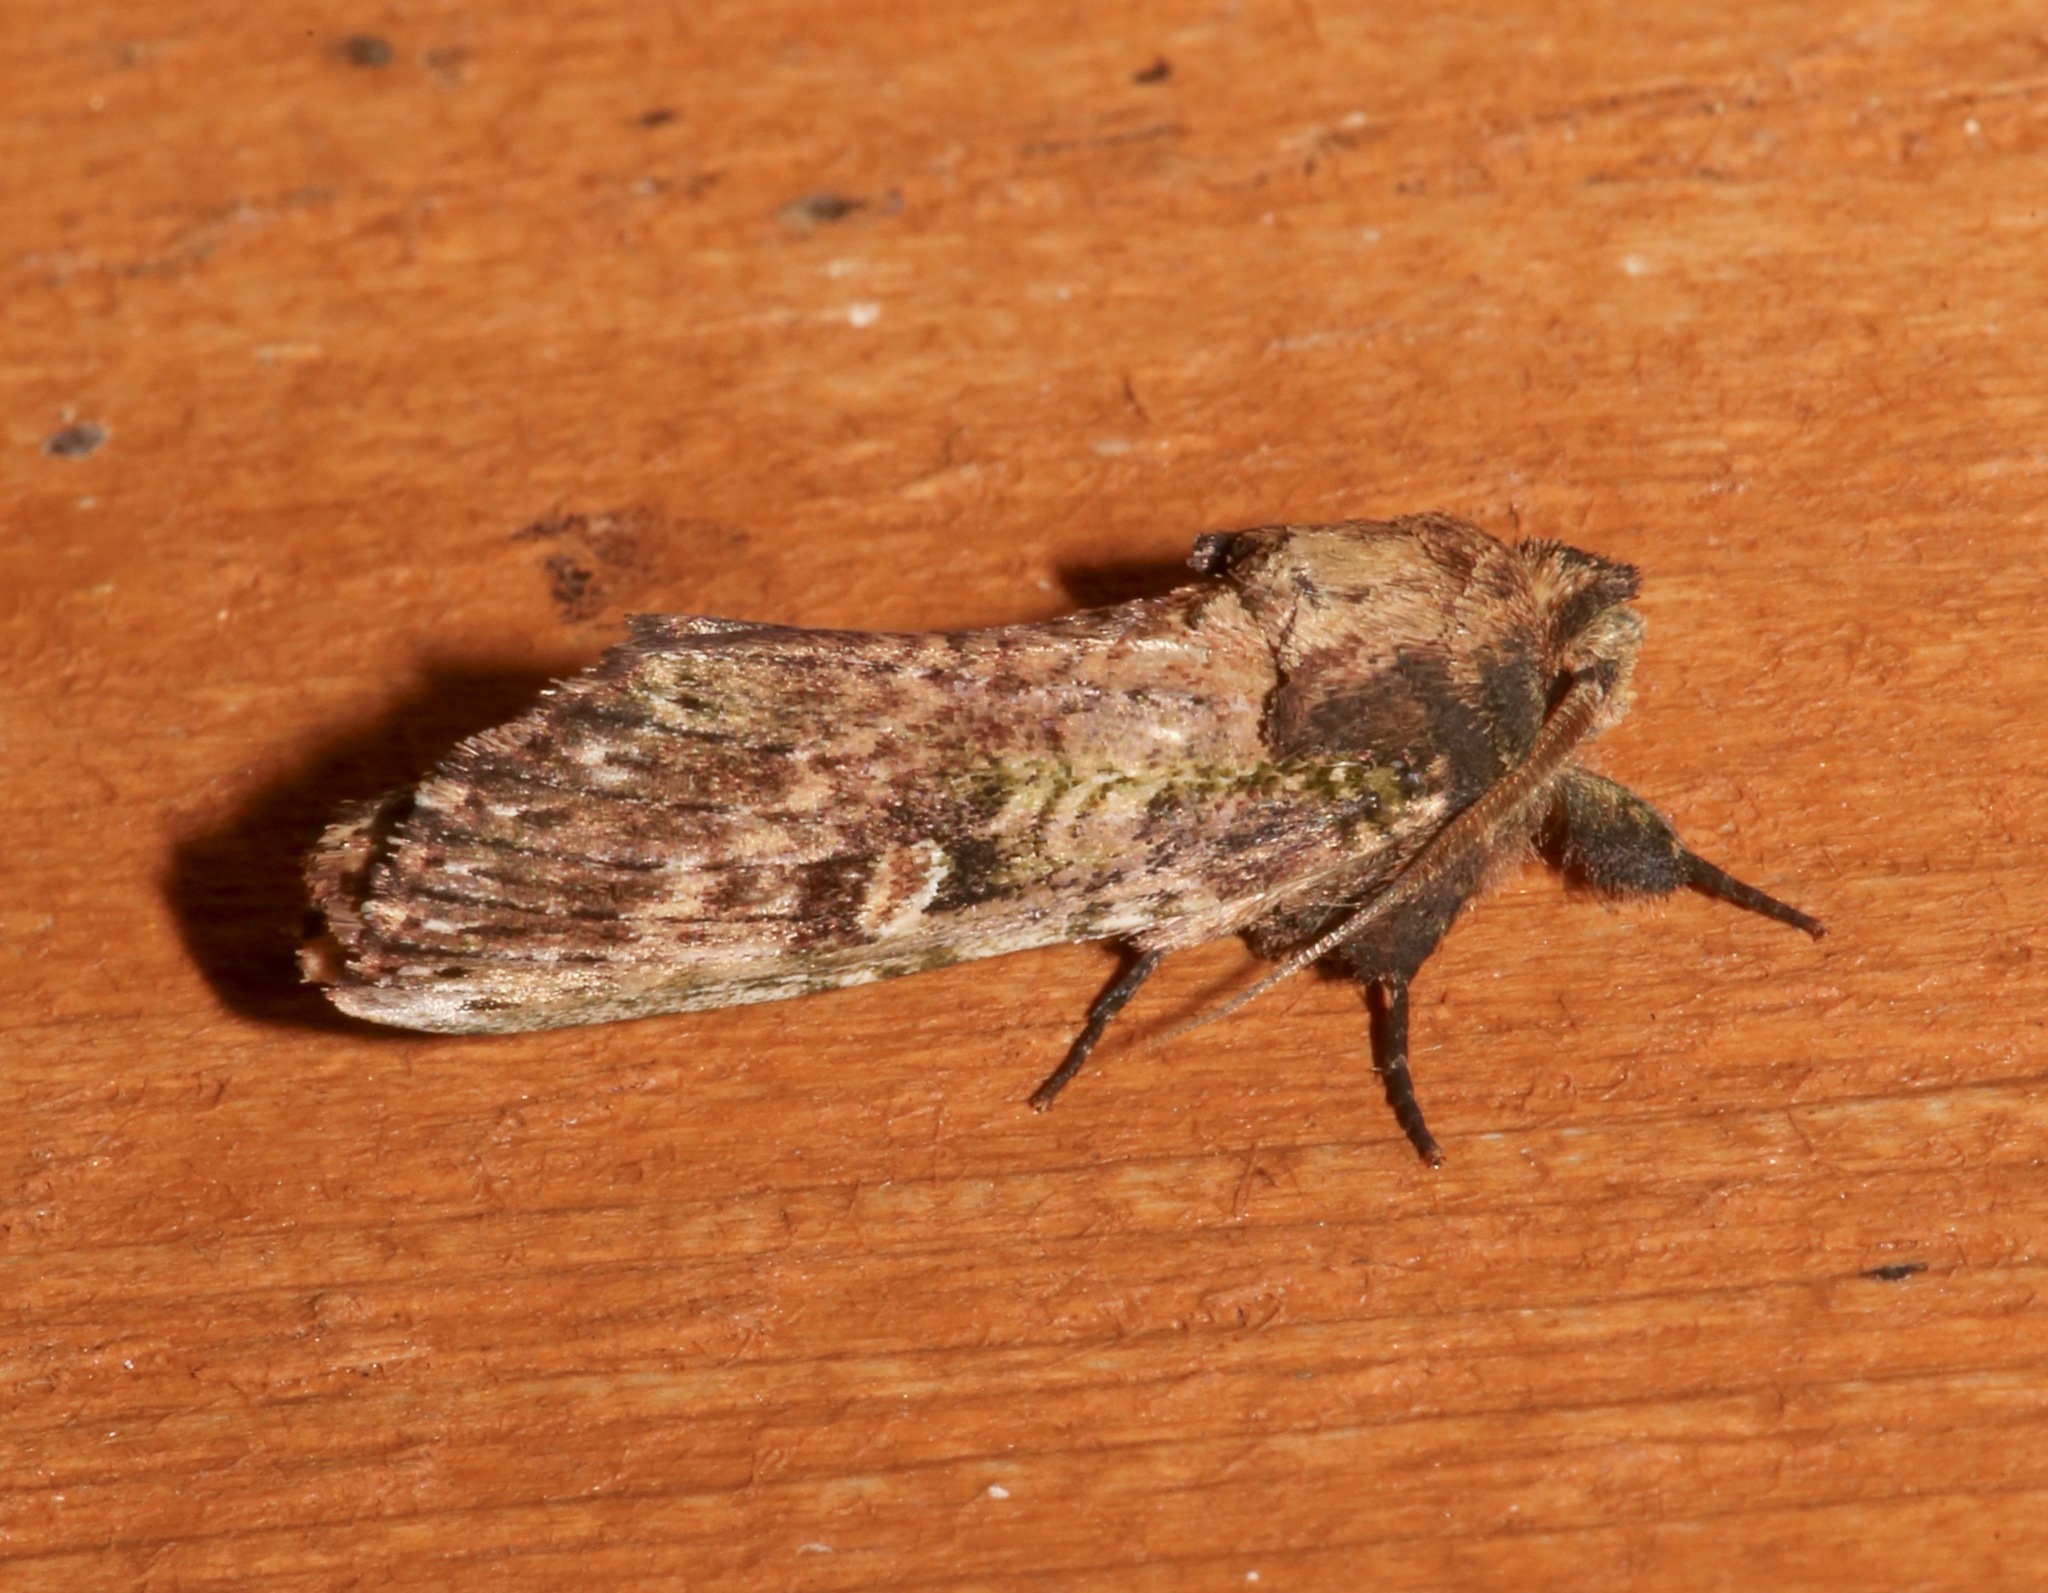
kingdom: Animalia
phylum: Arthropoda
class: Insecta
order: Lepidoptera
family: Notodontidae
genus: Schizura
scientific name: Schizura ipomaeae
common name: Morning-glory prominent
